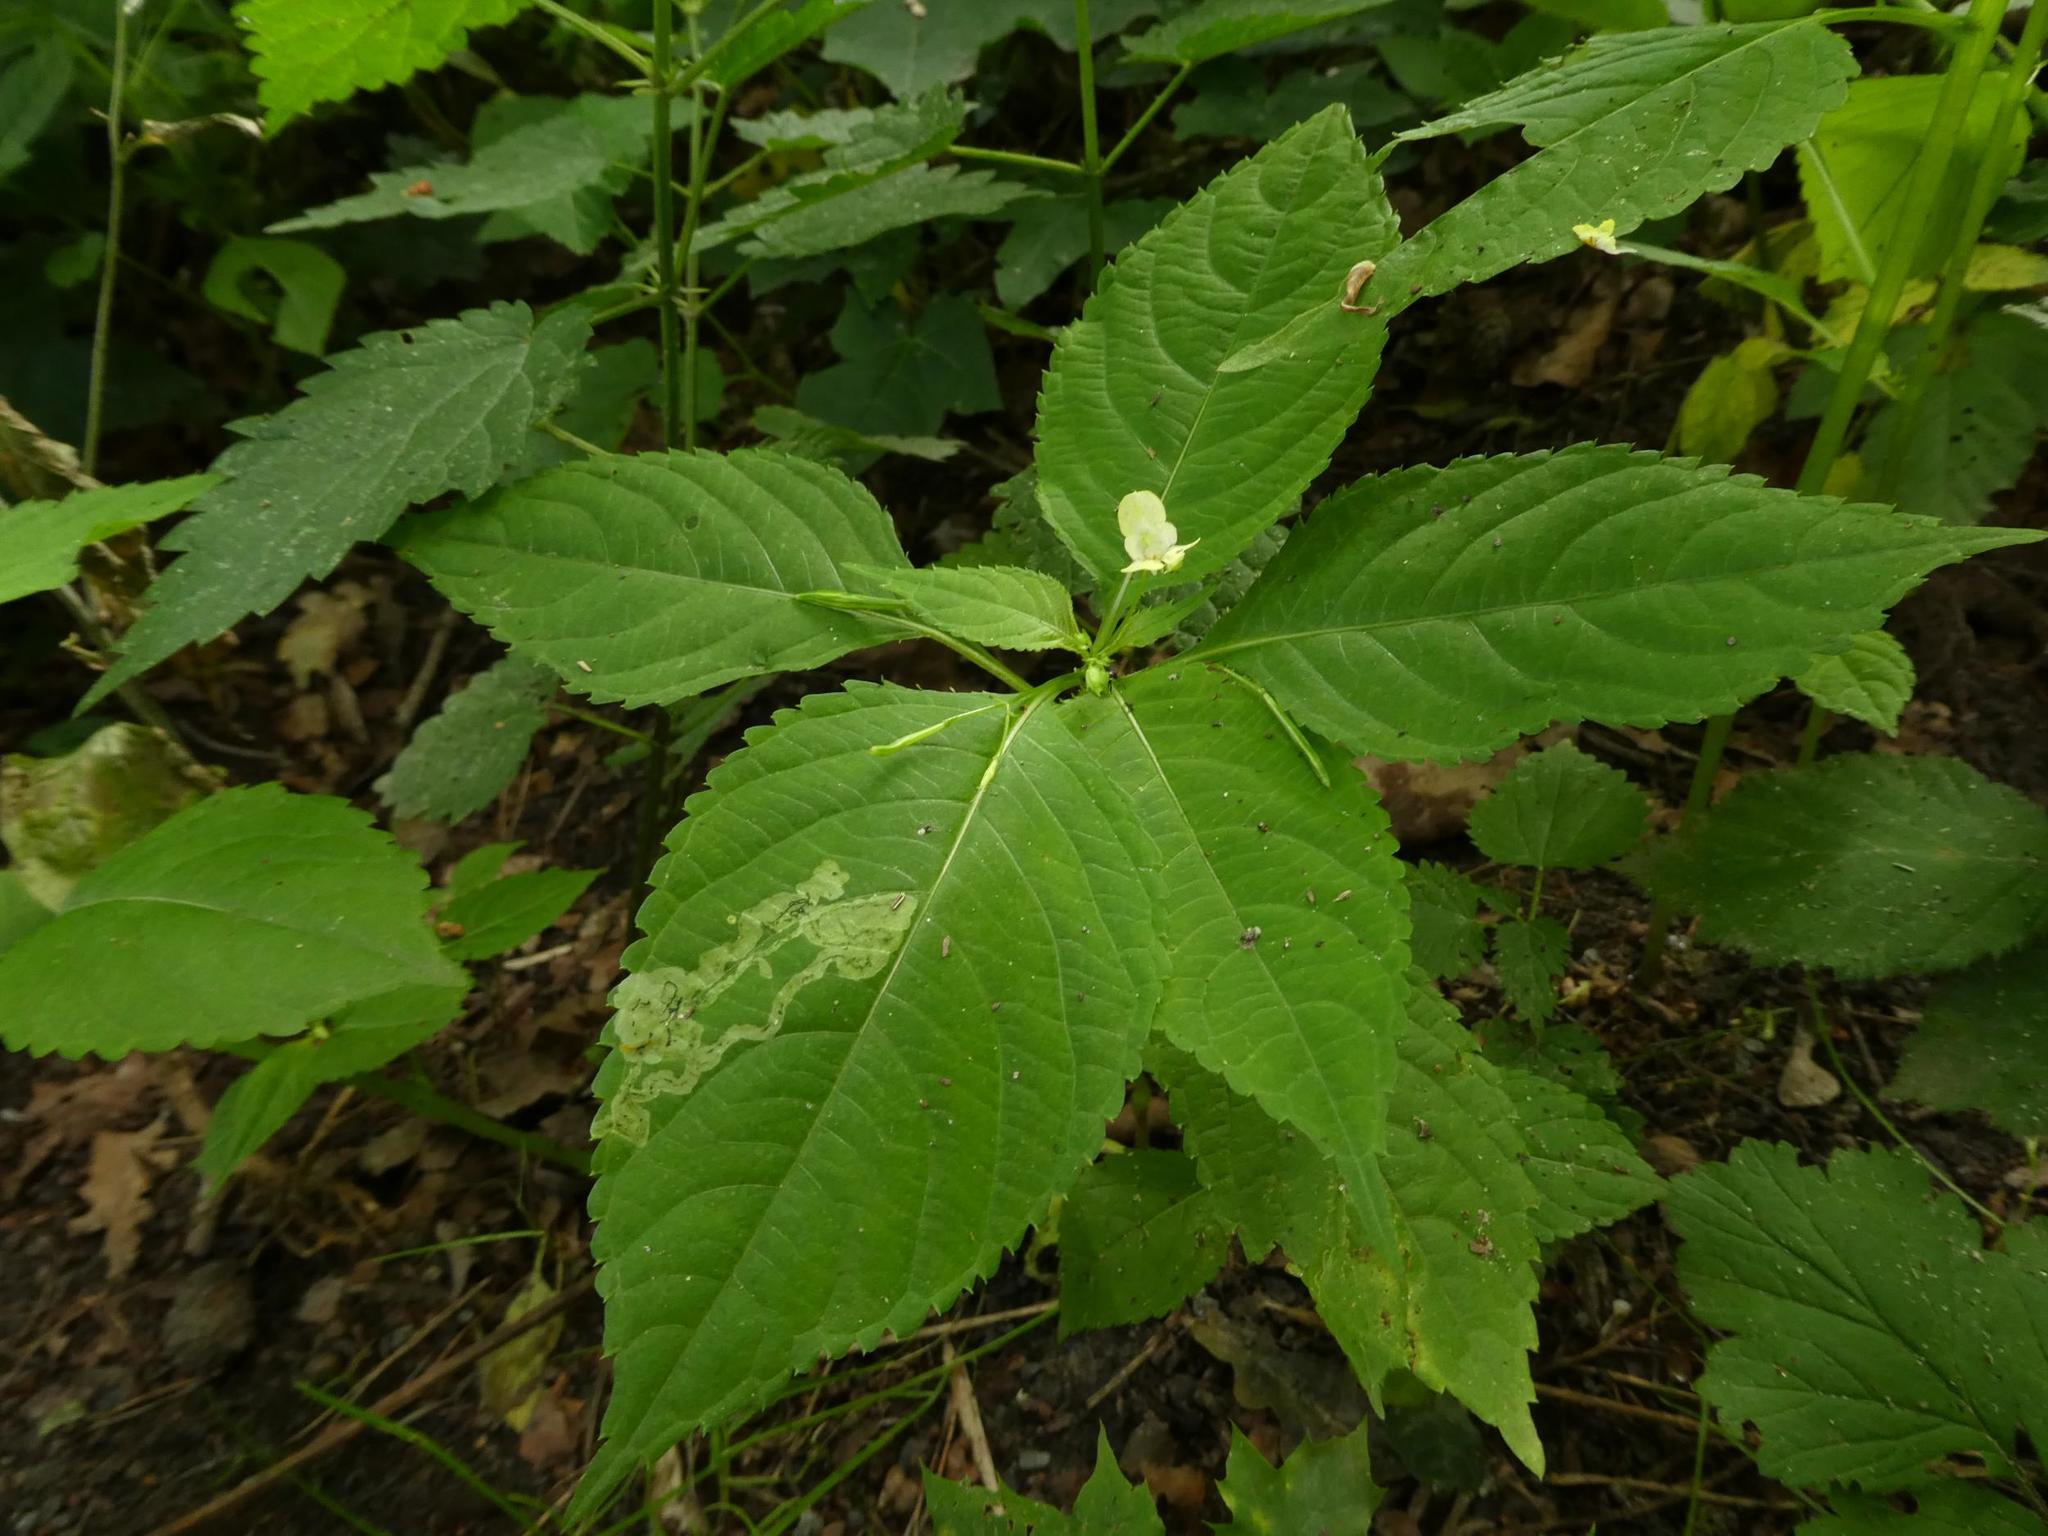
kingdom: Plantae
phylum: Tracheophyta
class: Magnoliopsida
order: Ericales
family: Balsaminaceae
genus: Impatiens
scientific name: Impatiens parviflora
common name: Small balsam
